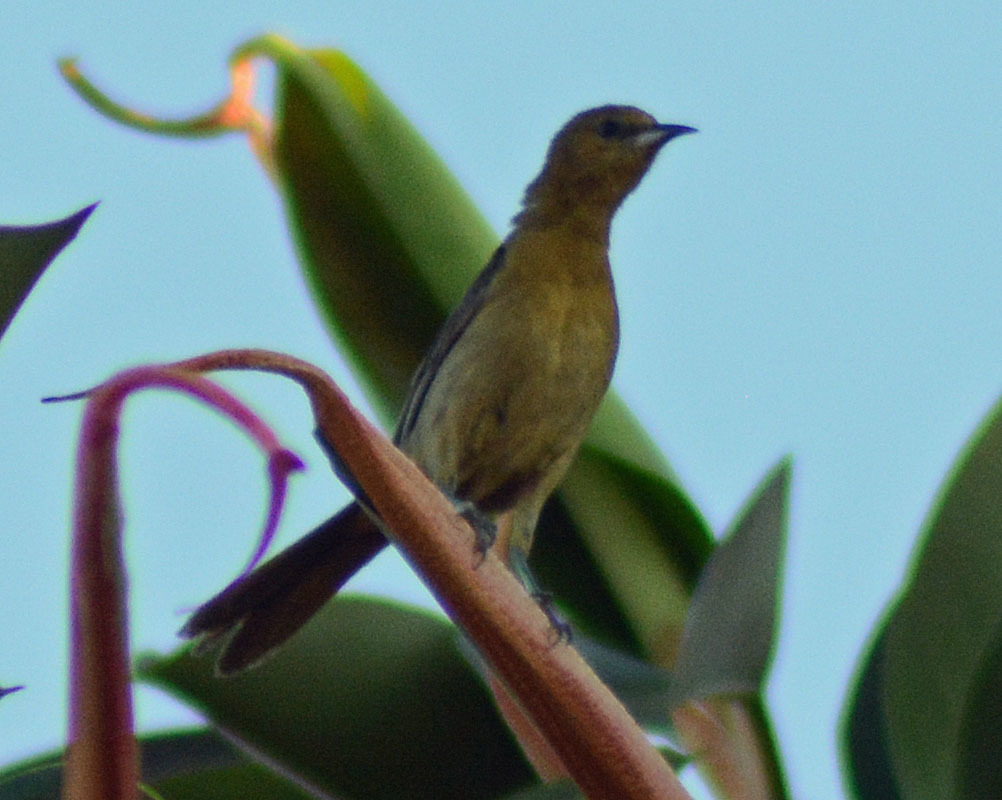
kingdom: Animalia
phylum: Chordata
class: Aves
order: Passeriformes
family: Icteridae
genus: Icterus
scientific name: Icterus cucullatus
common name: Hooded oriole
